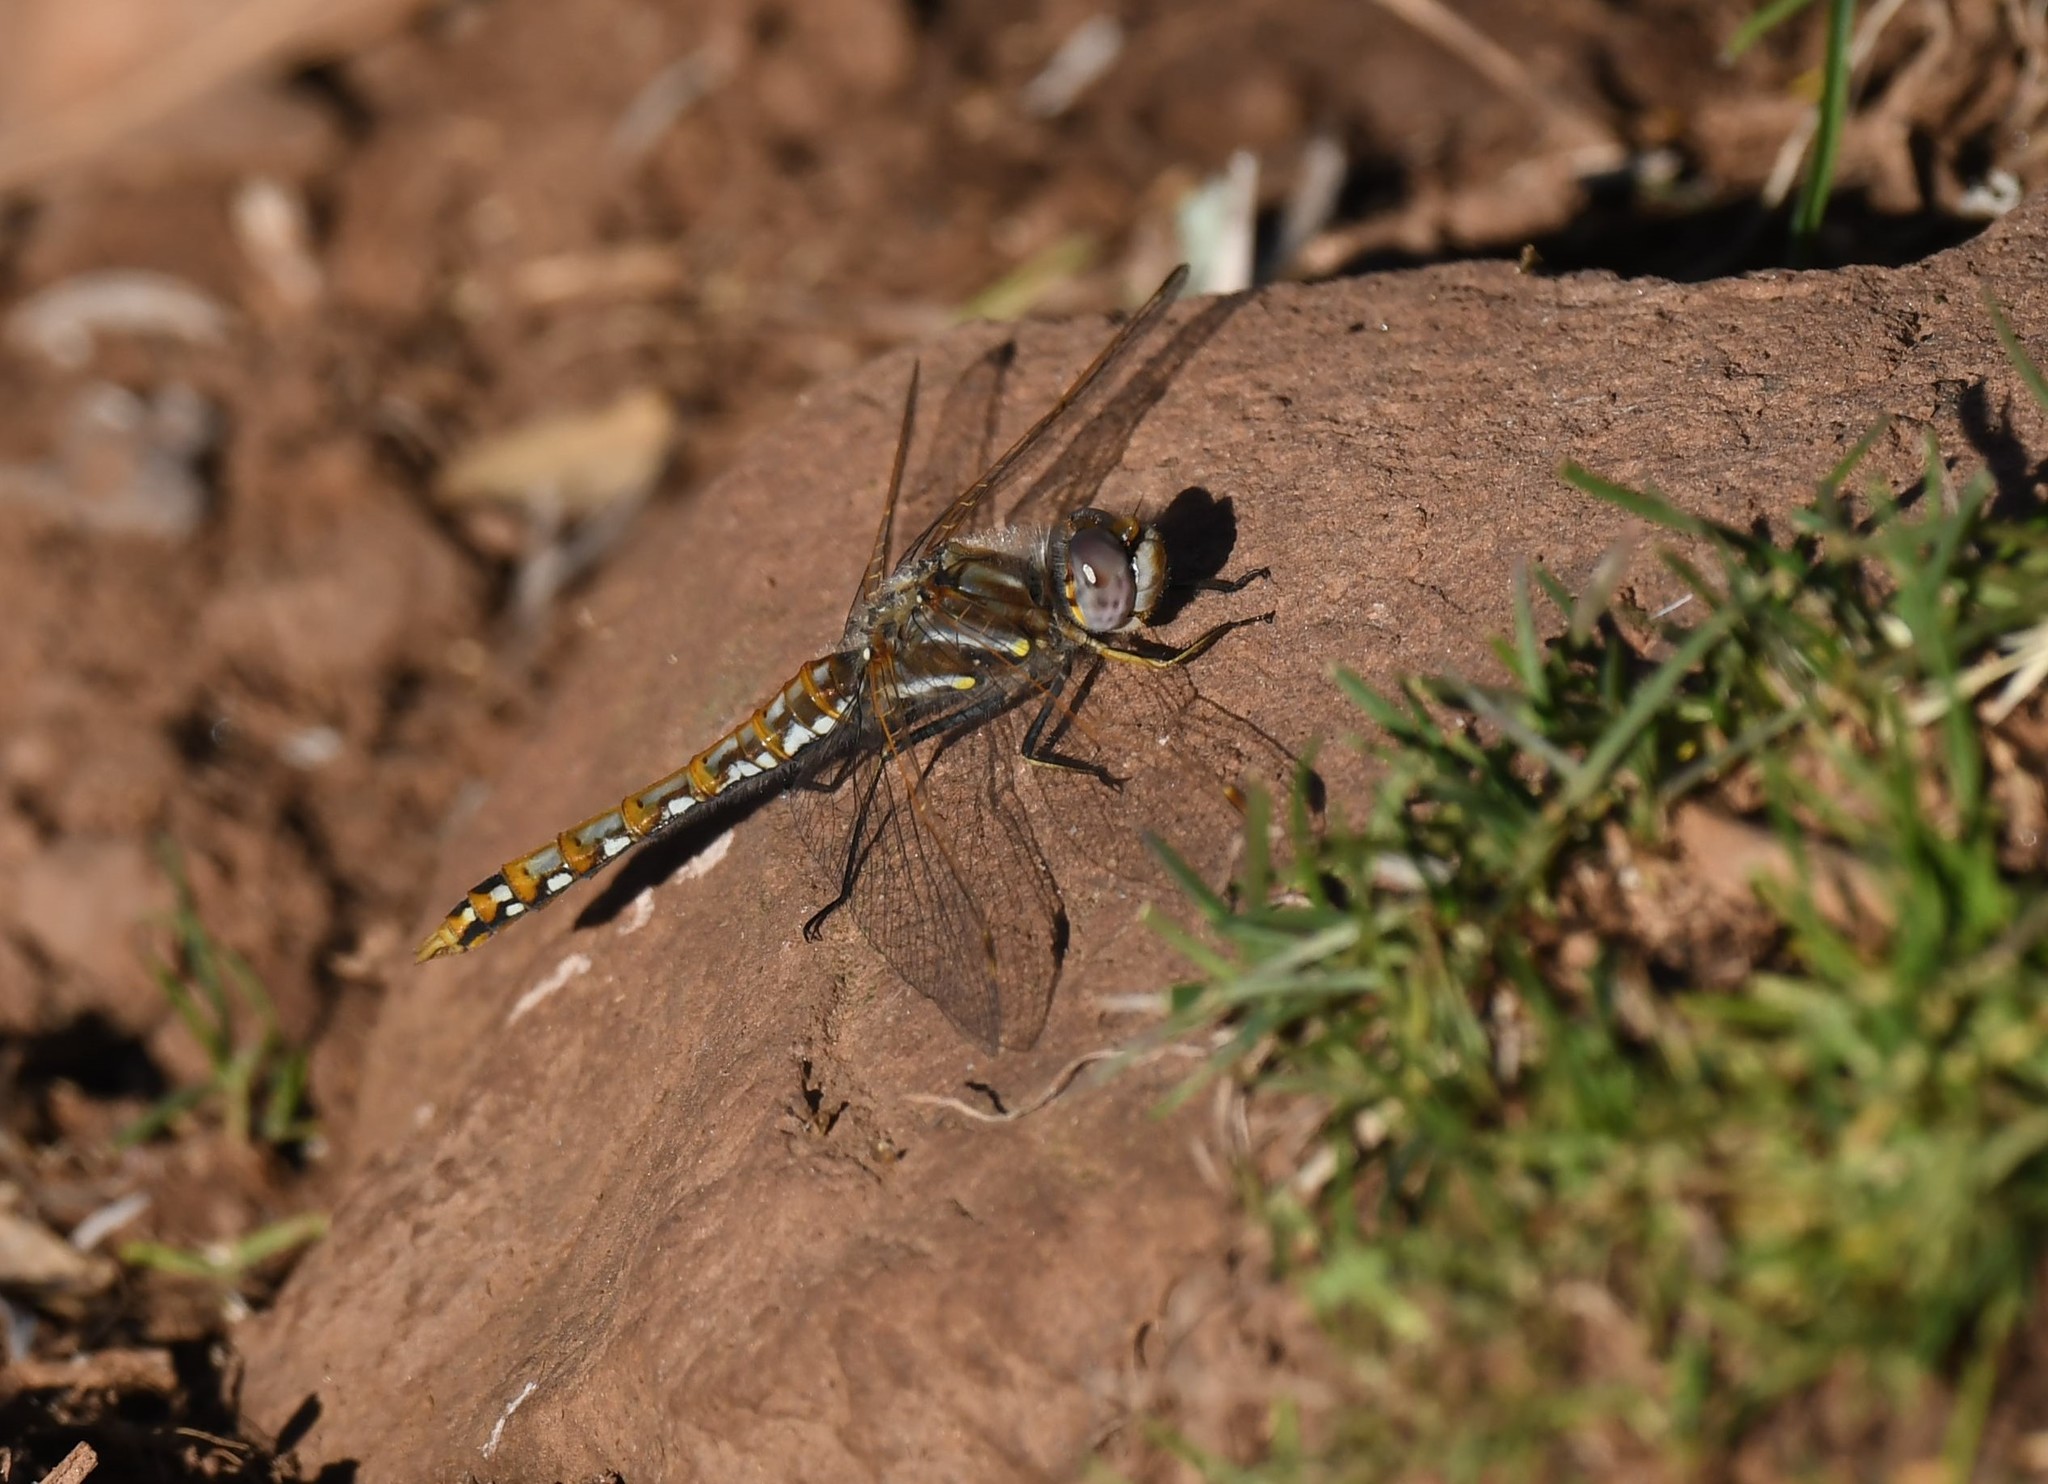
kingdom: Animalia
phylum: Arthropoda
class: Insecta
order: Odonata
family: Libellulidae
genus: Sympetrum
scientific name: Sympetrum corruptum
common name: Variegated meadowhawk
